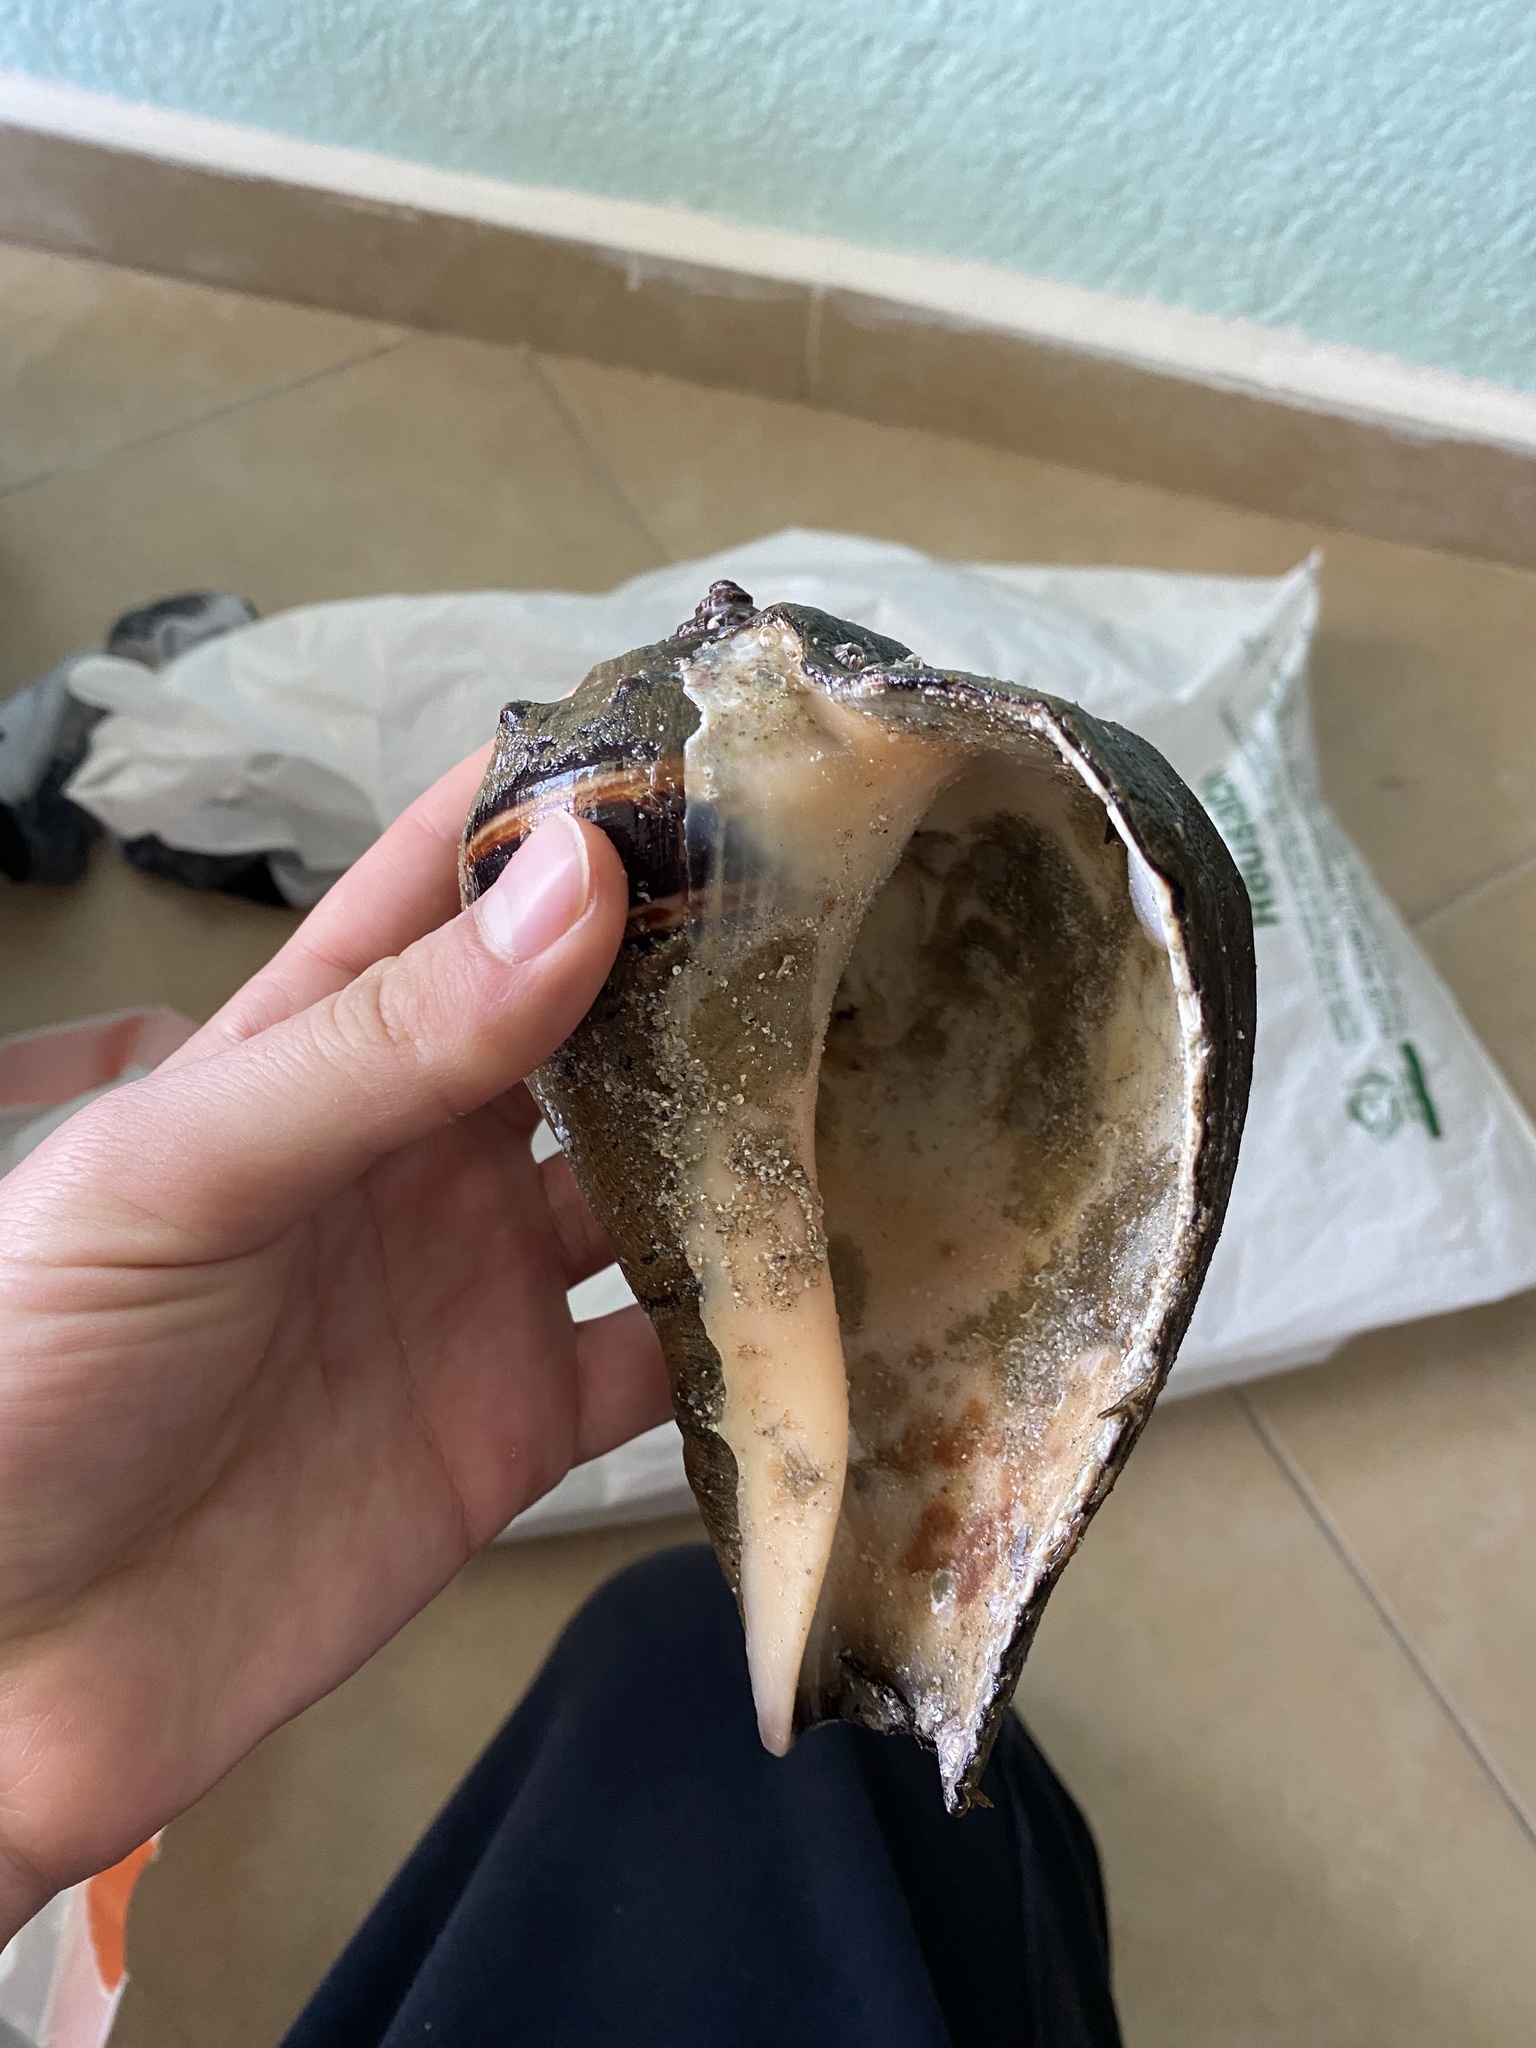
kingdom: Animalia
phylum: Mollusca
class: Gastropoda
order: Neogastropoda
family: Melongenidae
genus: Melongena
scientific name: Melongena patula
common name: Pacific crown conch
